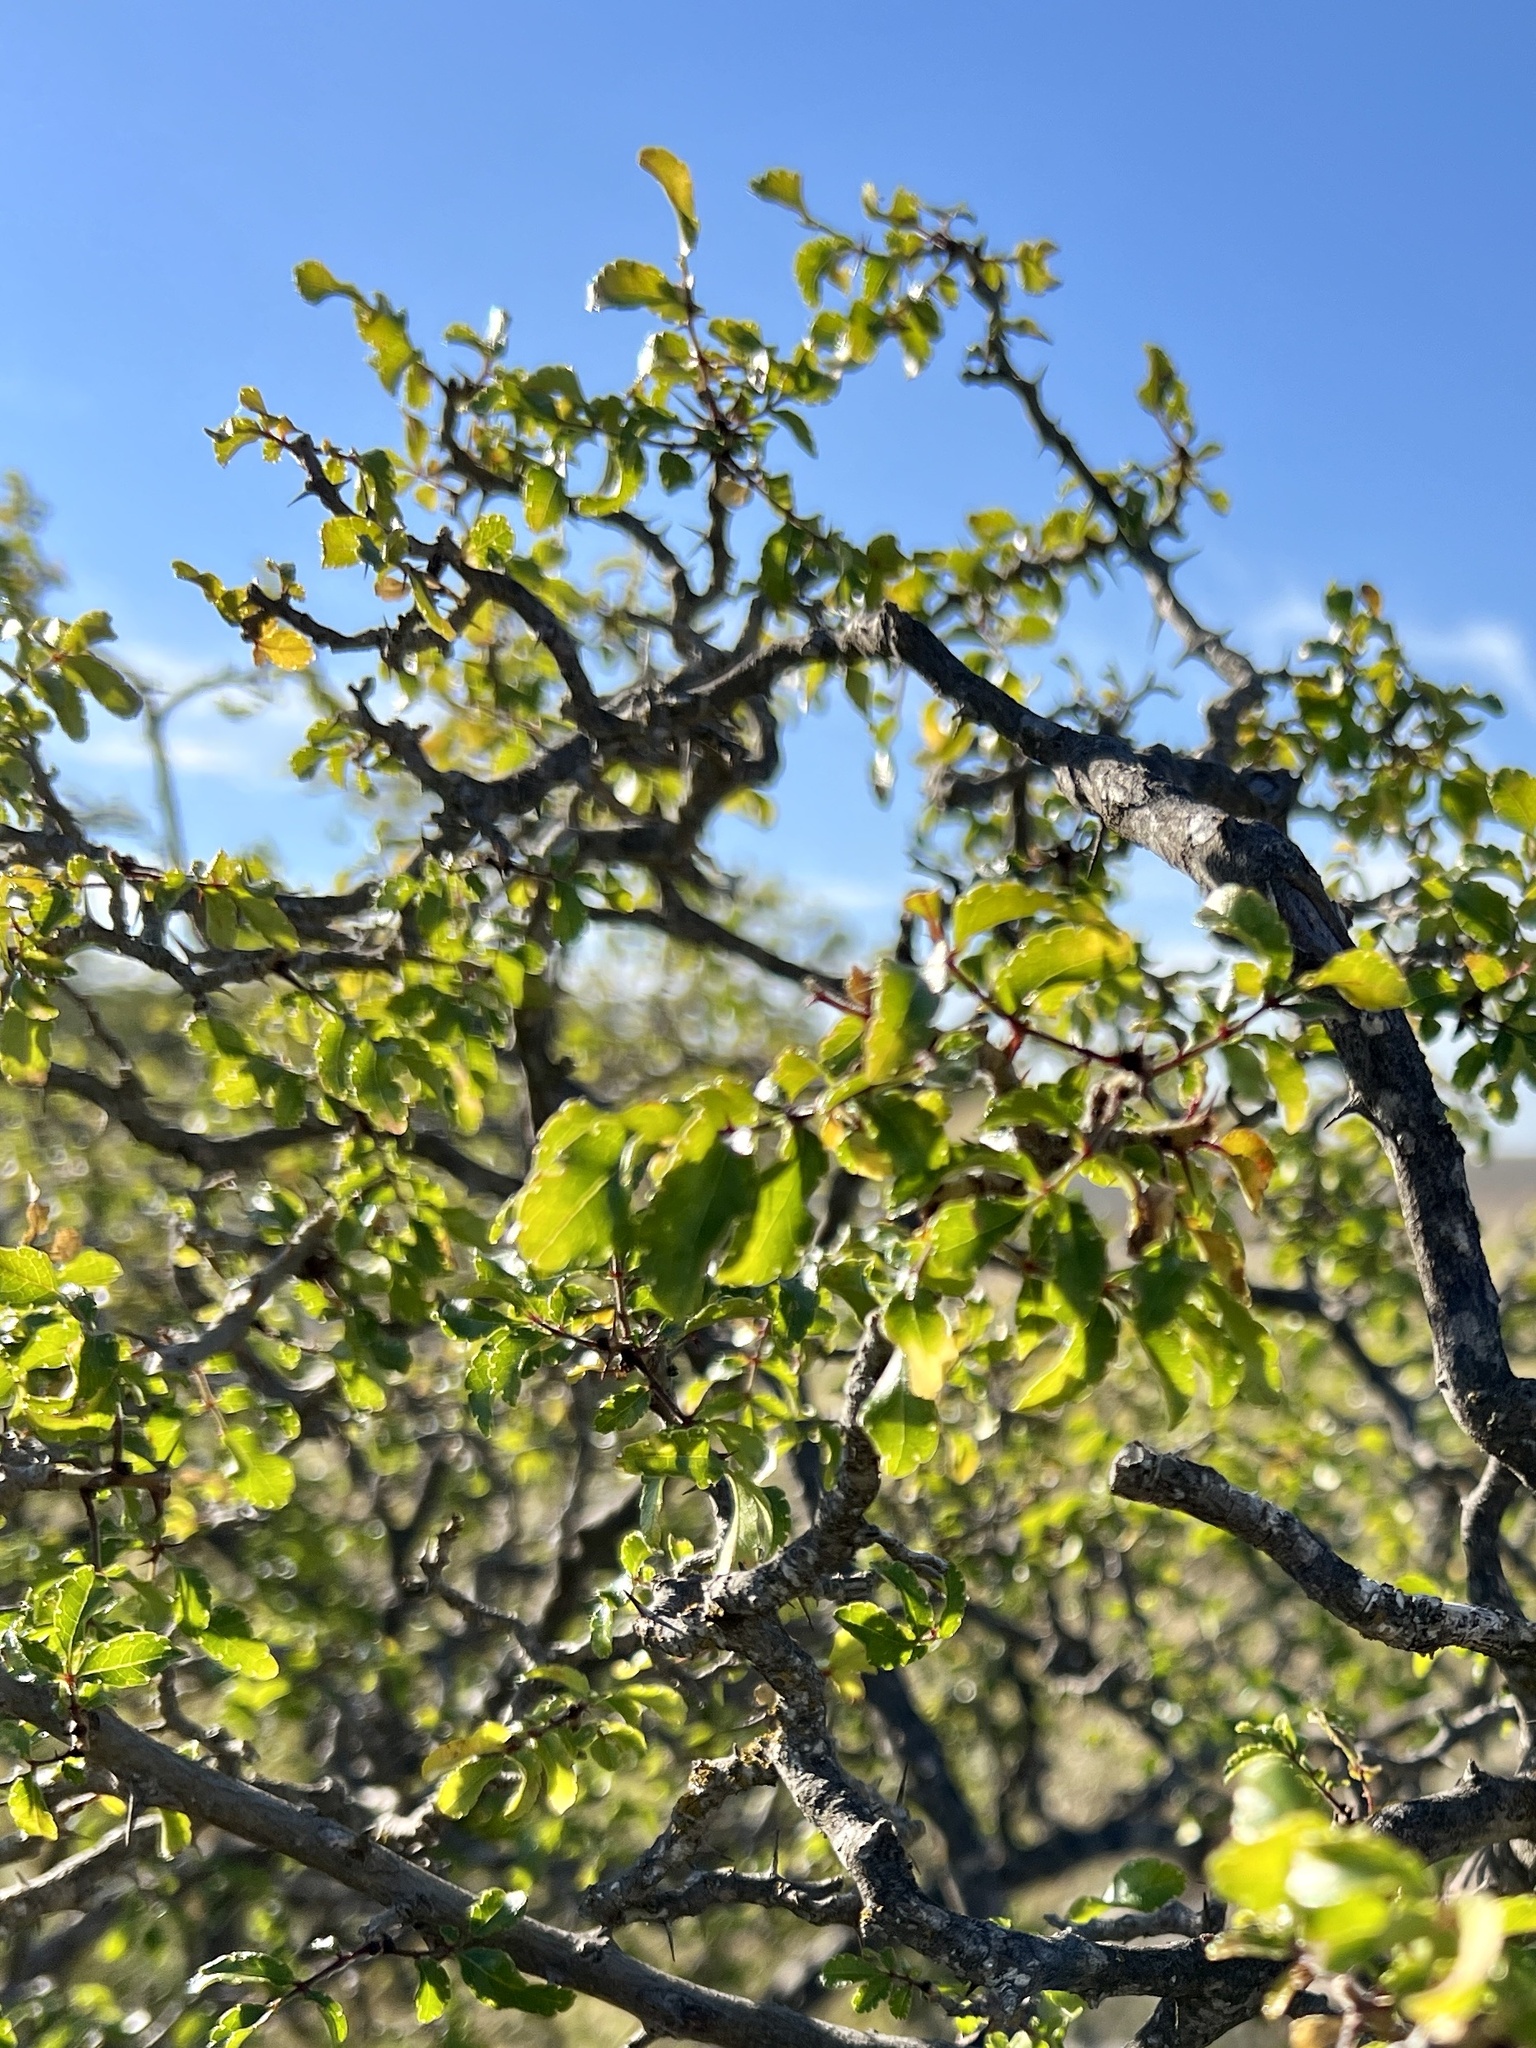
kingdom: Plantae
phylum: Tracheophyta
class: Magnoliopsida
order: Sapindales
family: Rutaceae
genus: Zanthoxylum
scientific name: Zanthoxylum clava-herculis
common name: Hercules'-club
